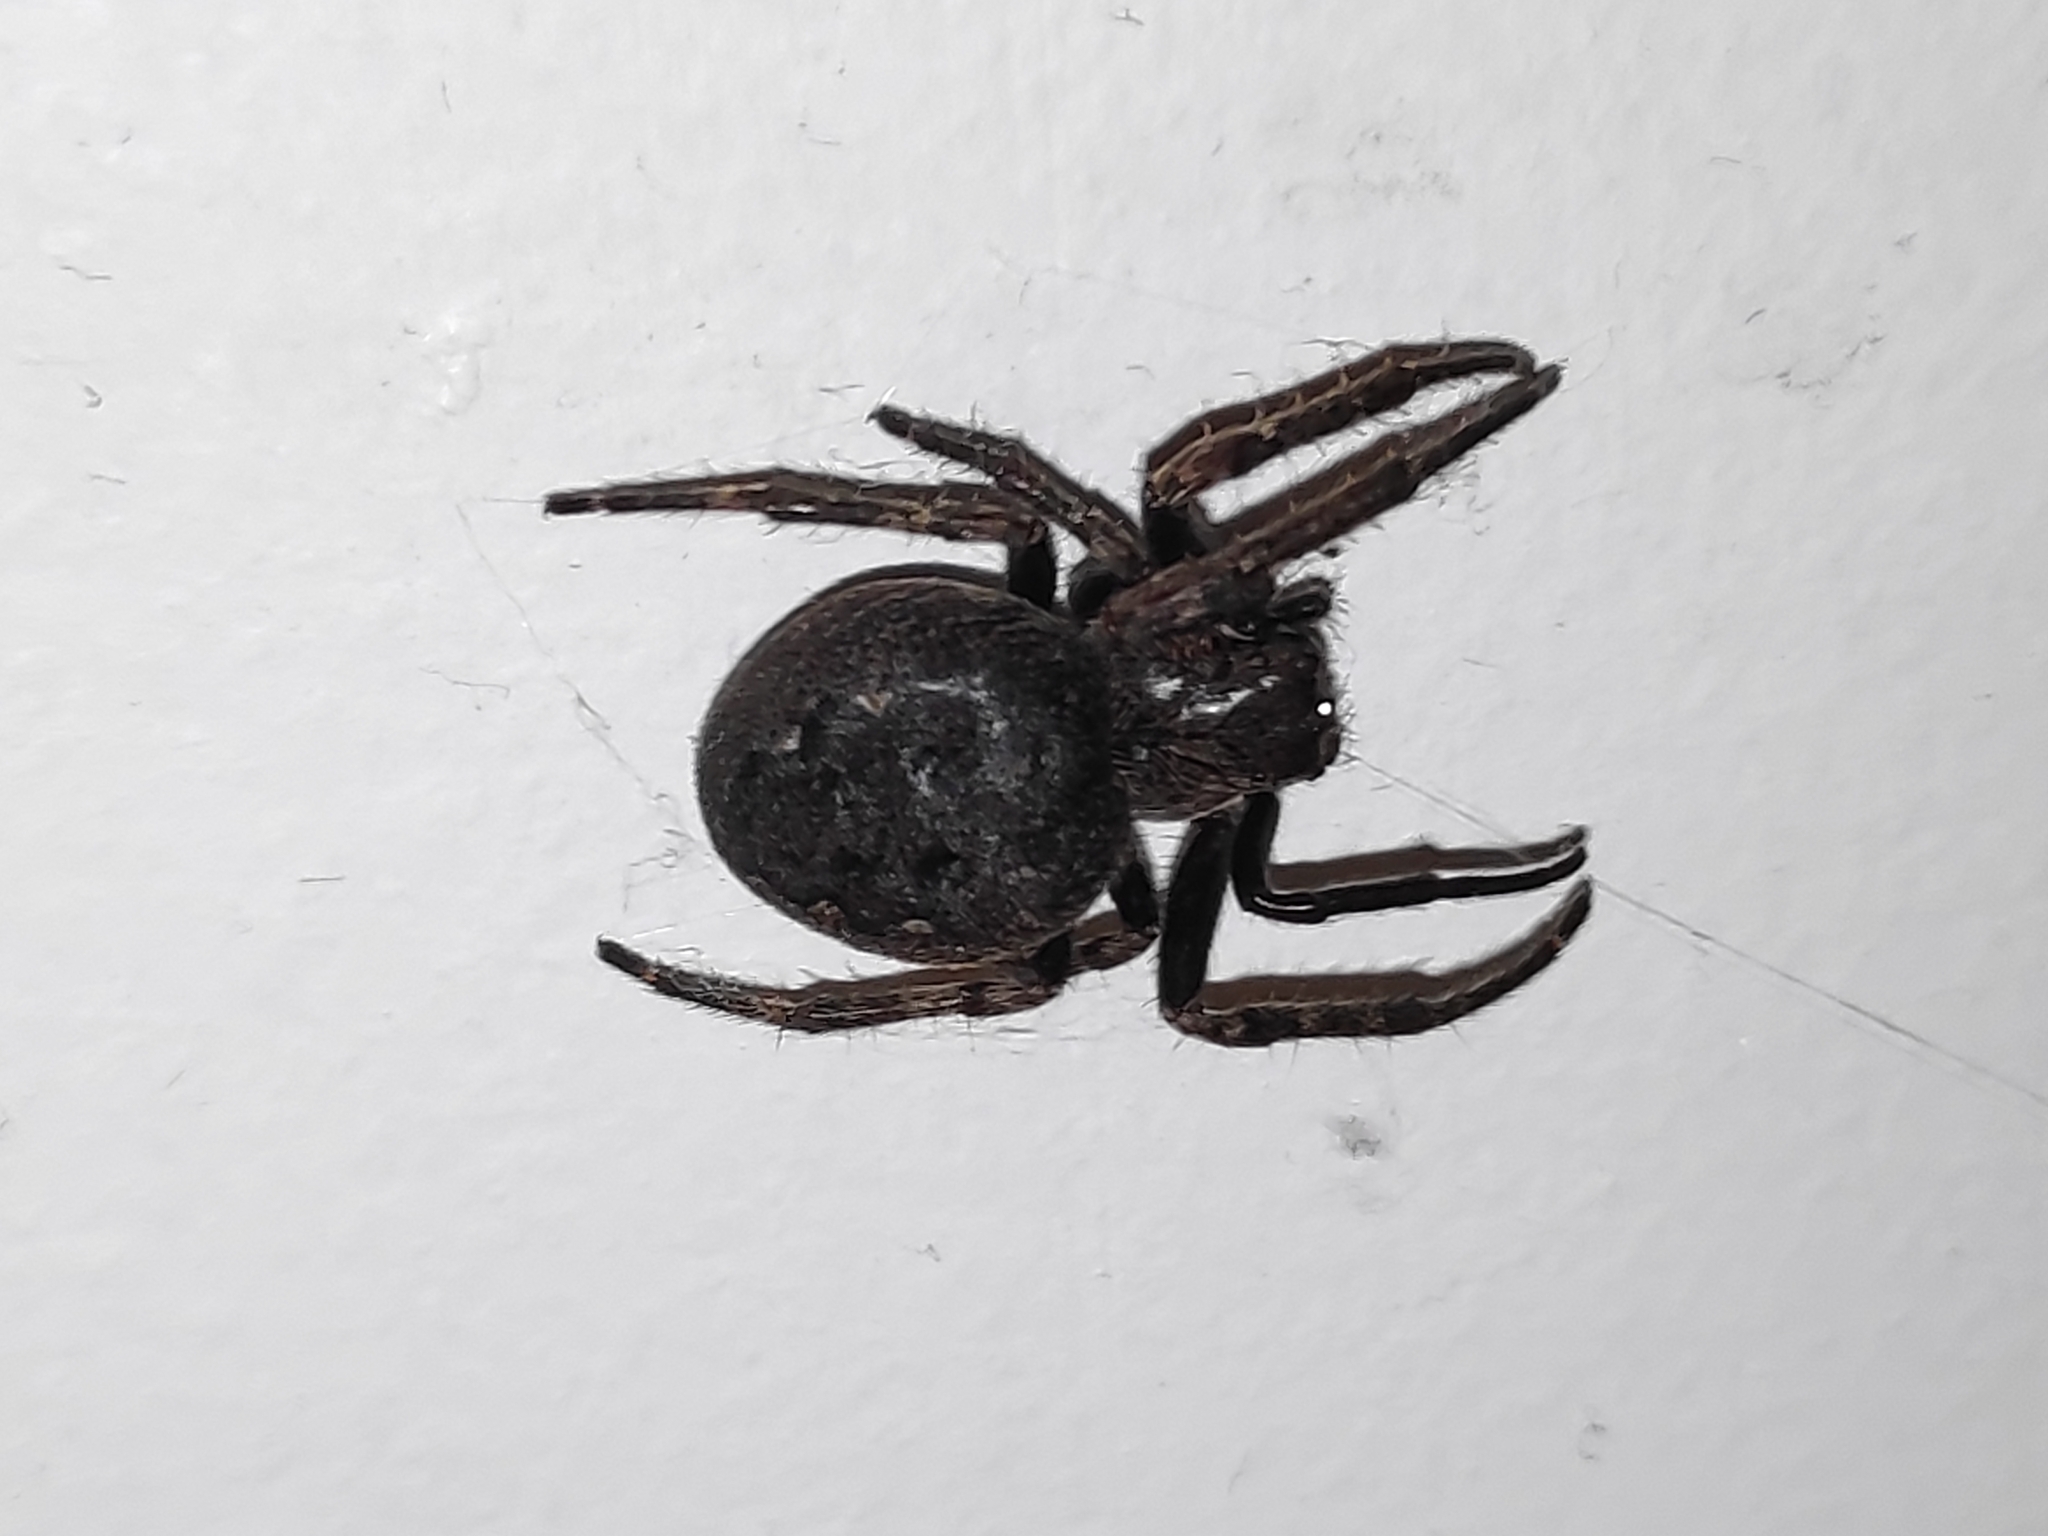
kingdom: Animalia
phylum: Arthropoda
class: Arachnida
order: Araneae
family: Araneidae
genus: Nuctenea
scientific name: Nuctenea umbratica
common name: Toad spider
